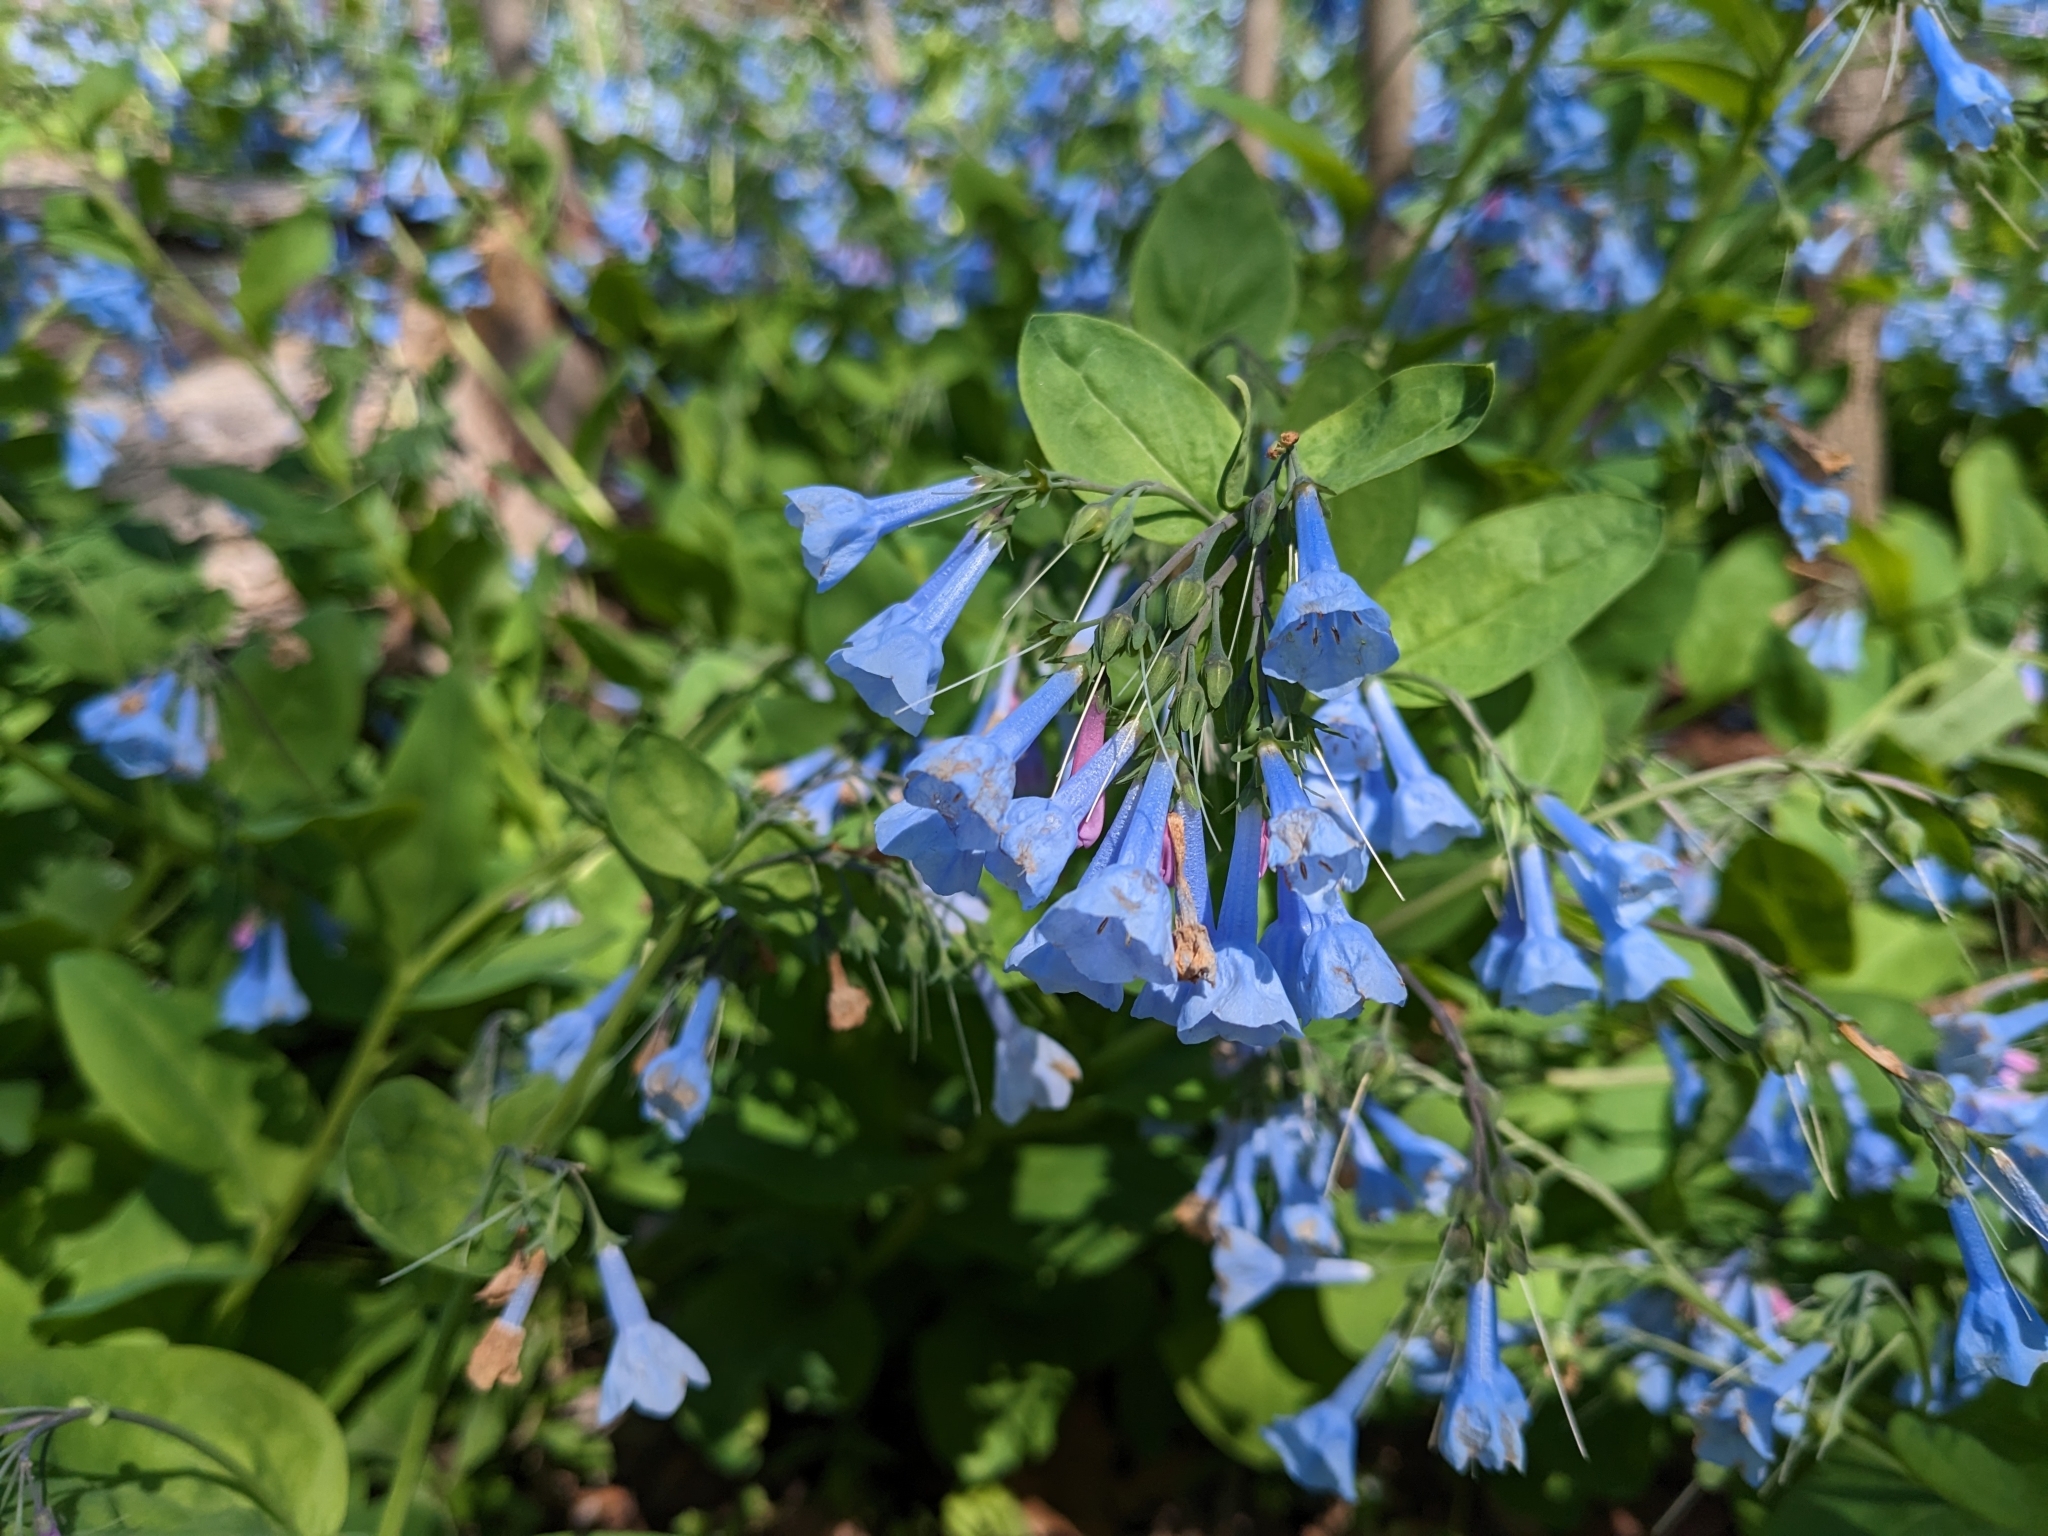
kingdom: Plantae
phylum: Tracheophyta
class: Magnoliopsida
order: Boraginales
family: Boraginaceae
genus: Mertensia
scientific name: Mertensia virginica
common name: Virginia bluebells
